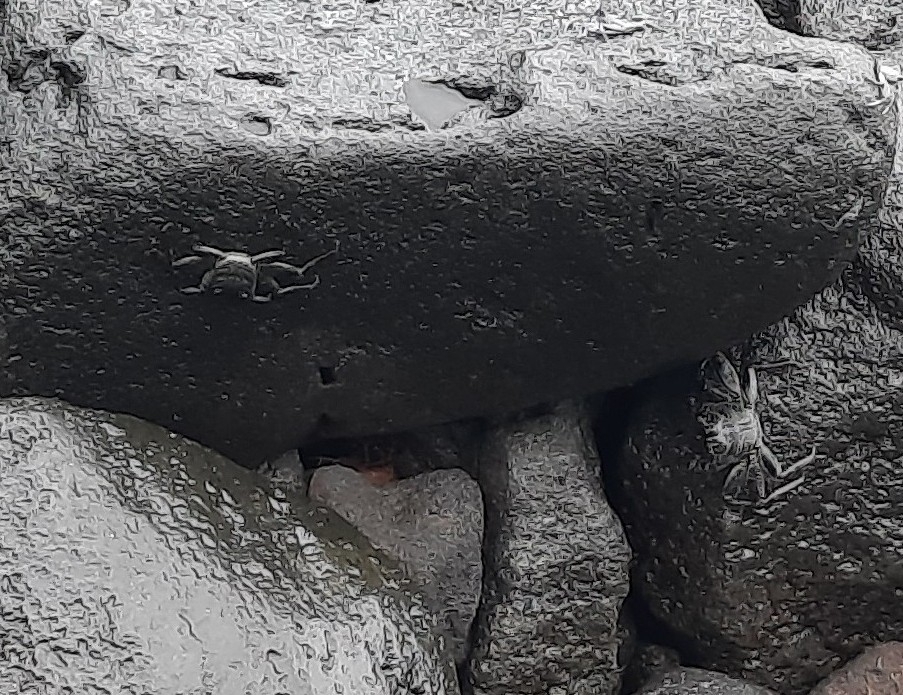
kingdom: Animalia
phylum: Arthropoda
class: Malacostraca
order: Decapoda
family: Grapsidae
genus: Grapsus
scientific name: Grapsus tenuicrustatus
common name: Natal lightfoot crab
